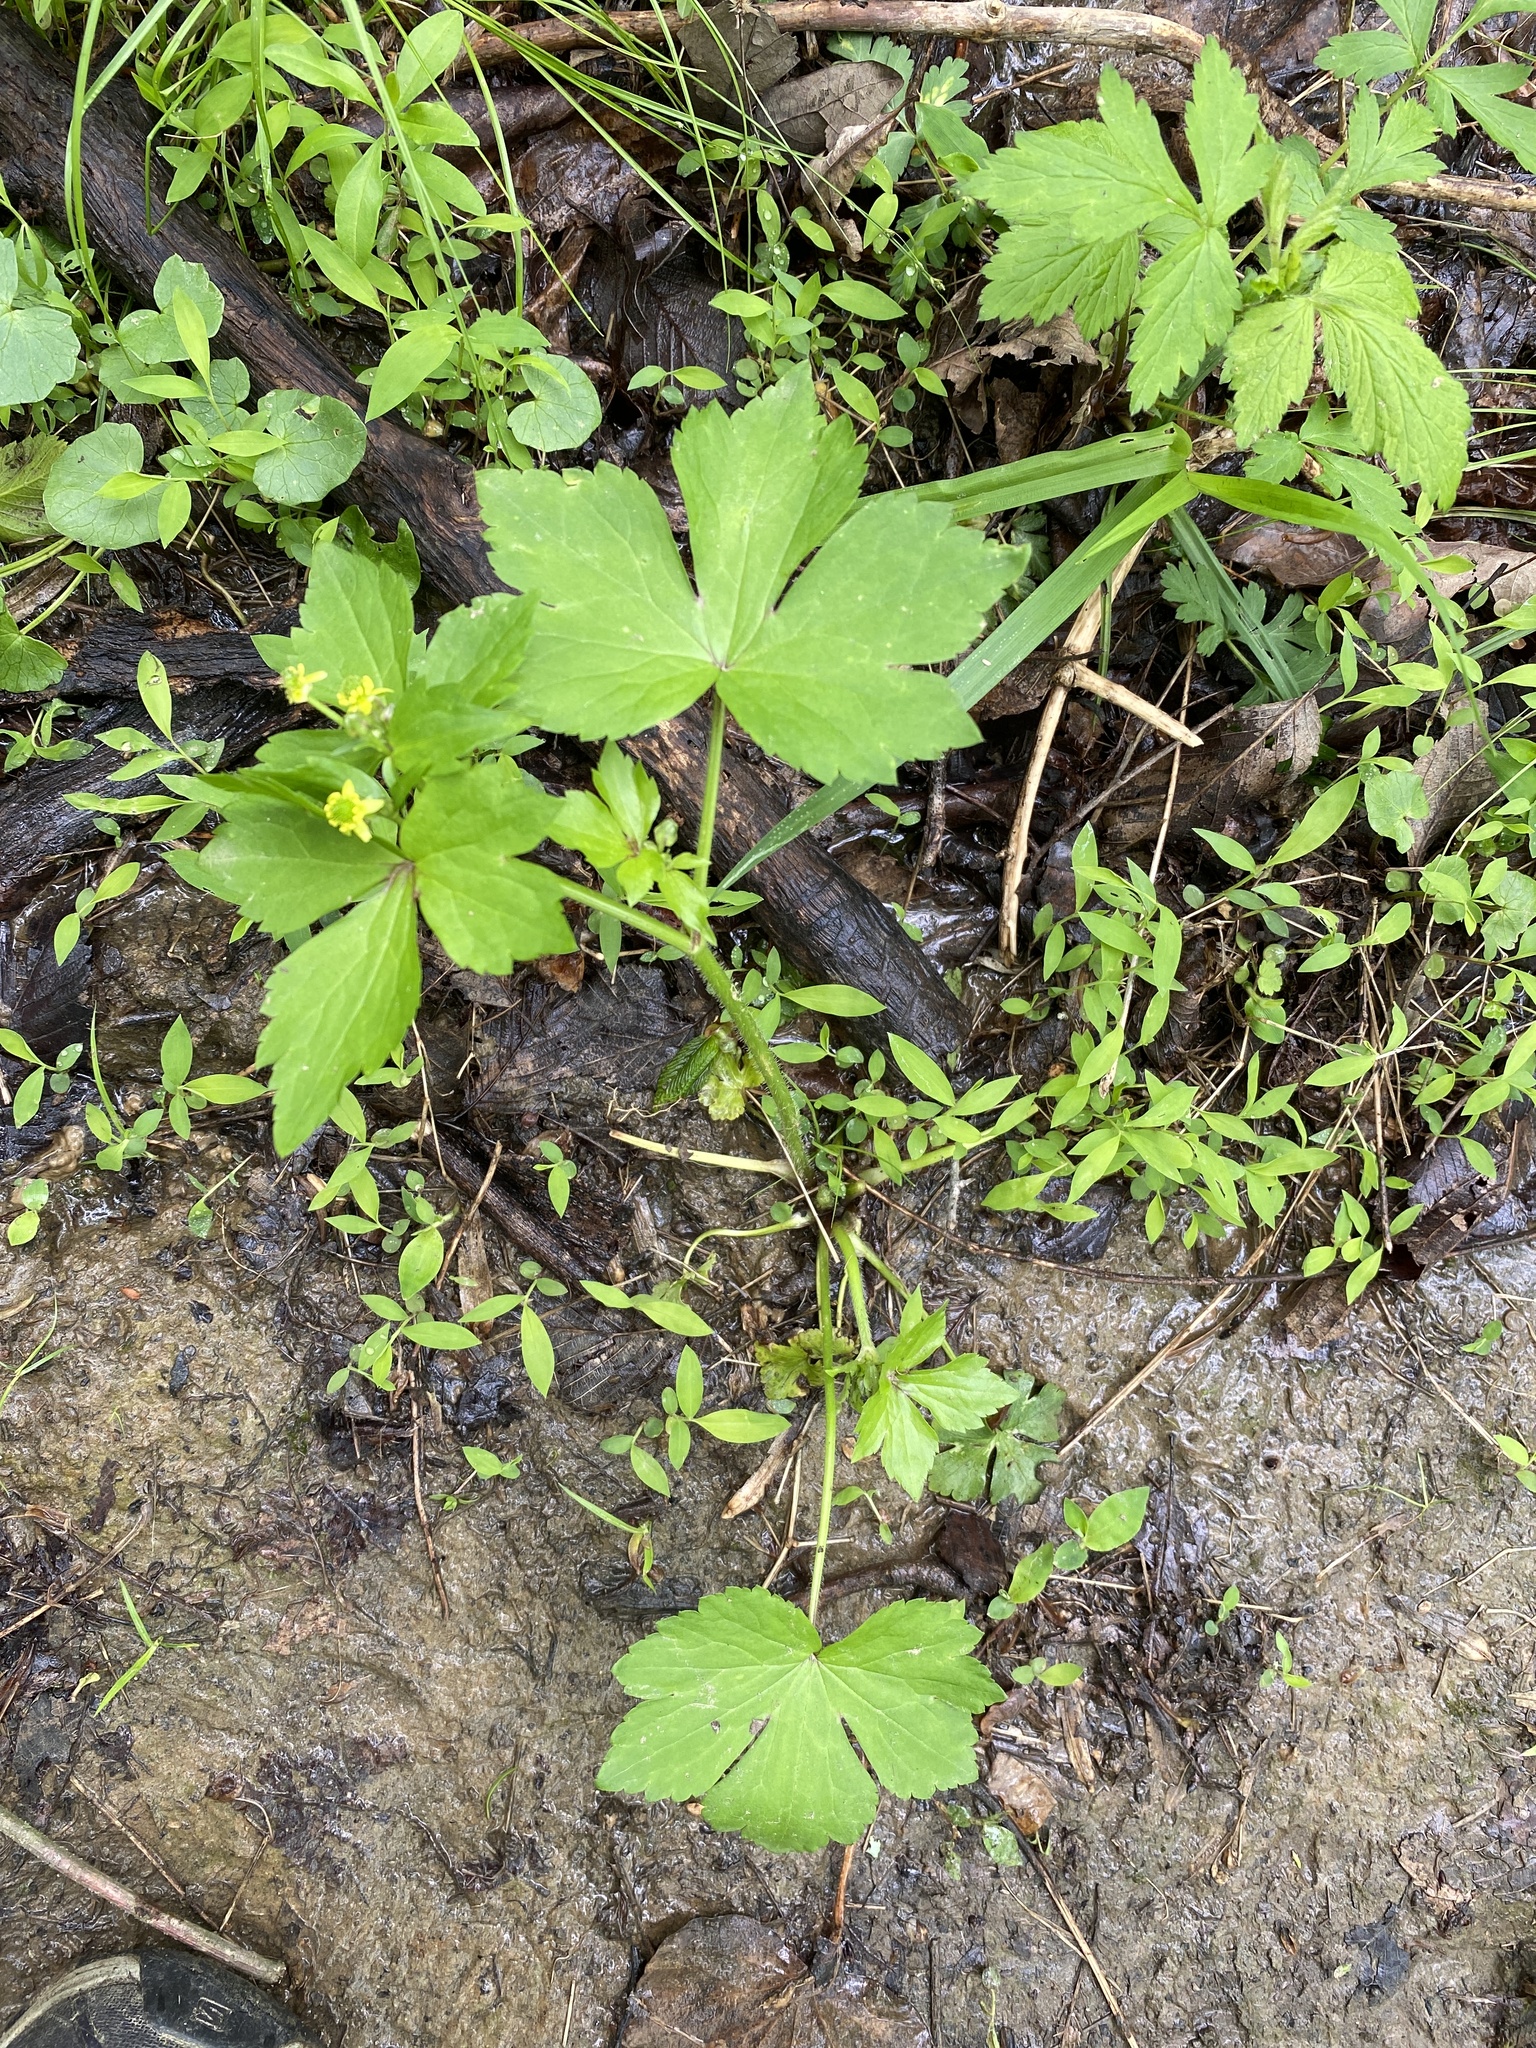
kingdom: Plantae
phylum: Tracheophyta
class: Magnoliopsida
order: Ranunculales
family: Ranunculaceae
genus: Ranunculus
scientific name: Ranunculus recurvatus
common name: Blisterwort
